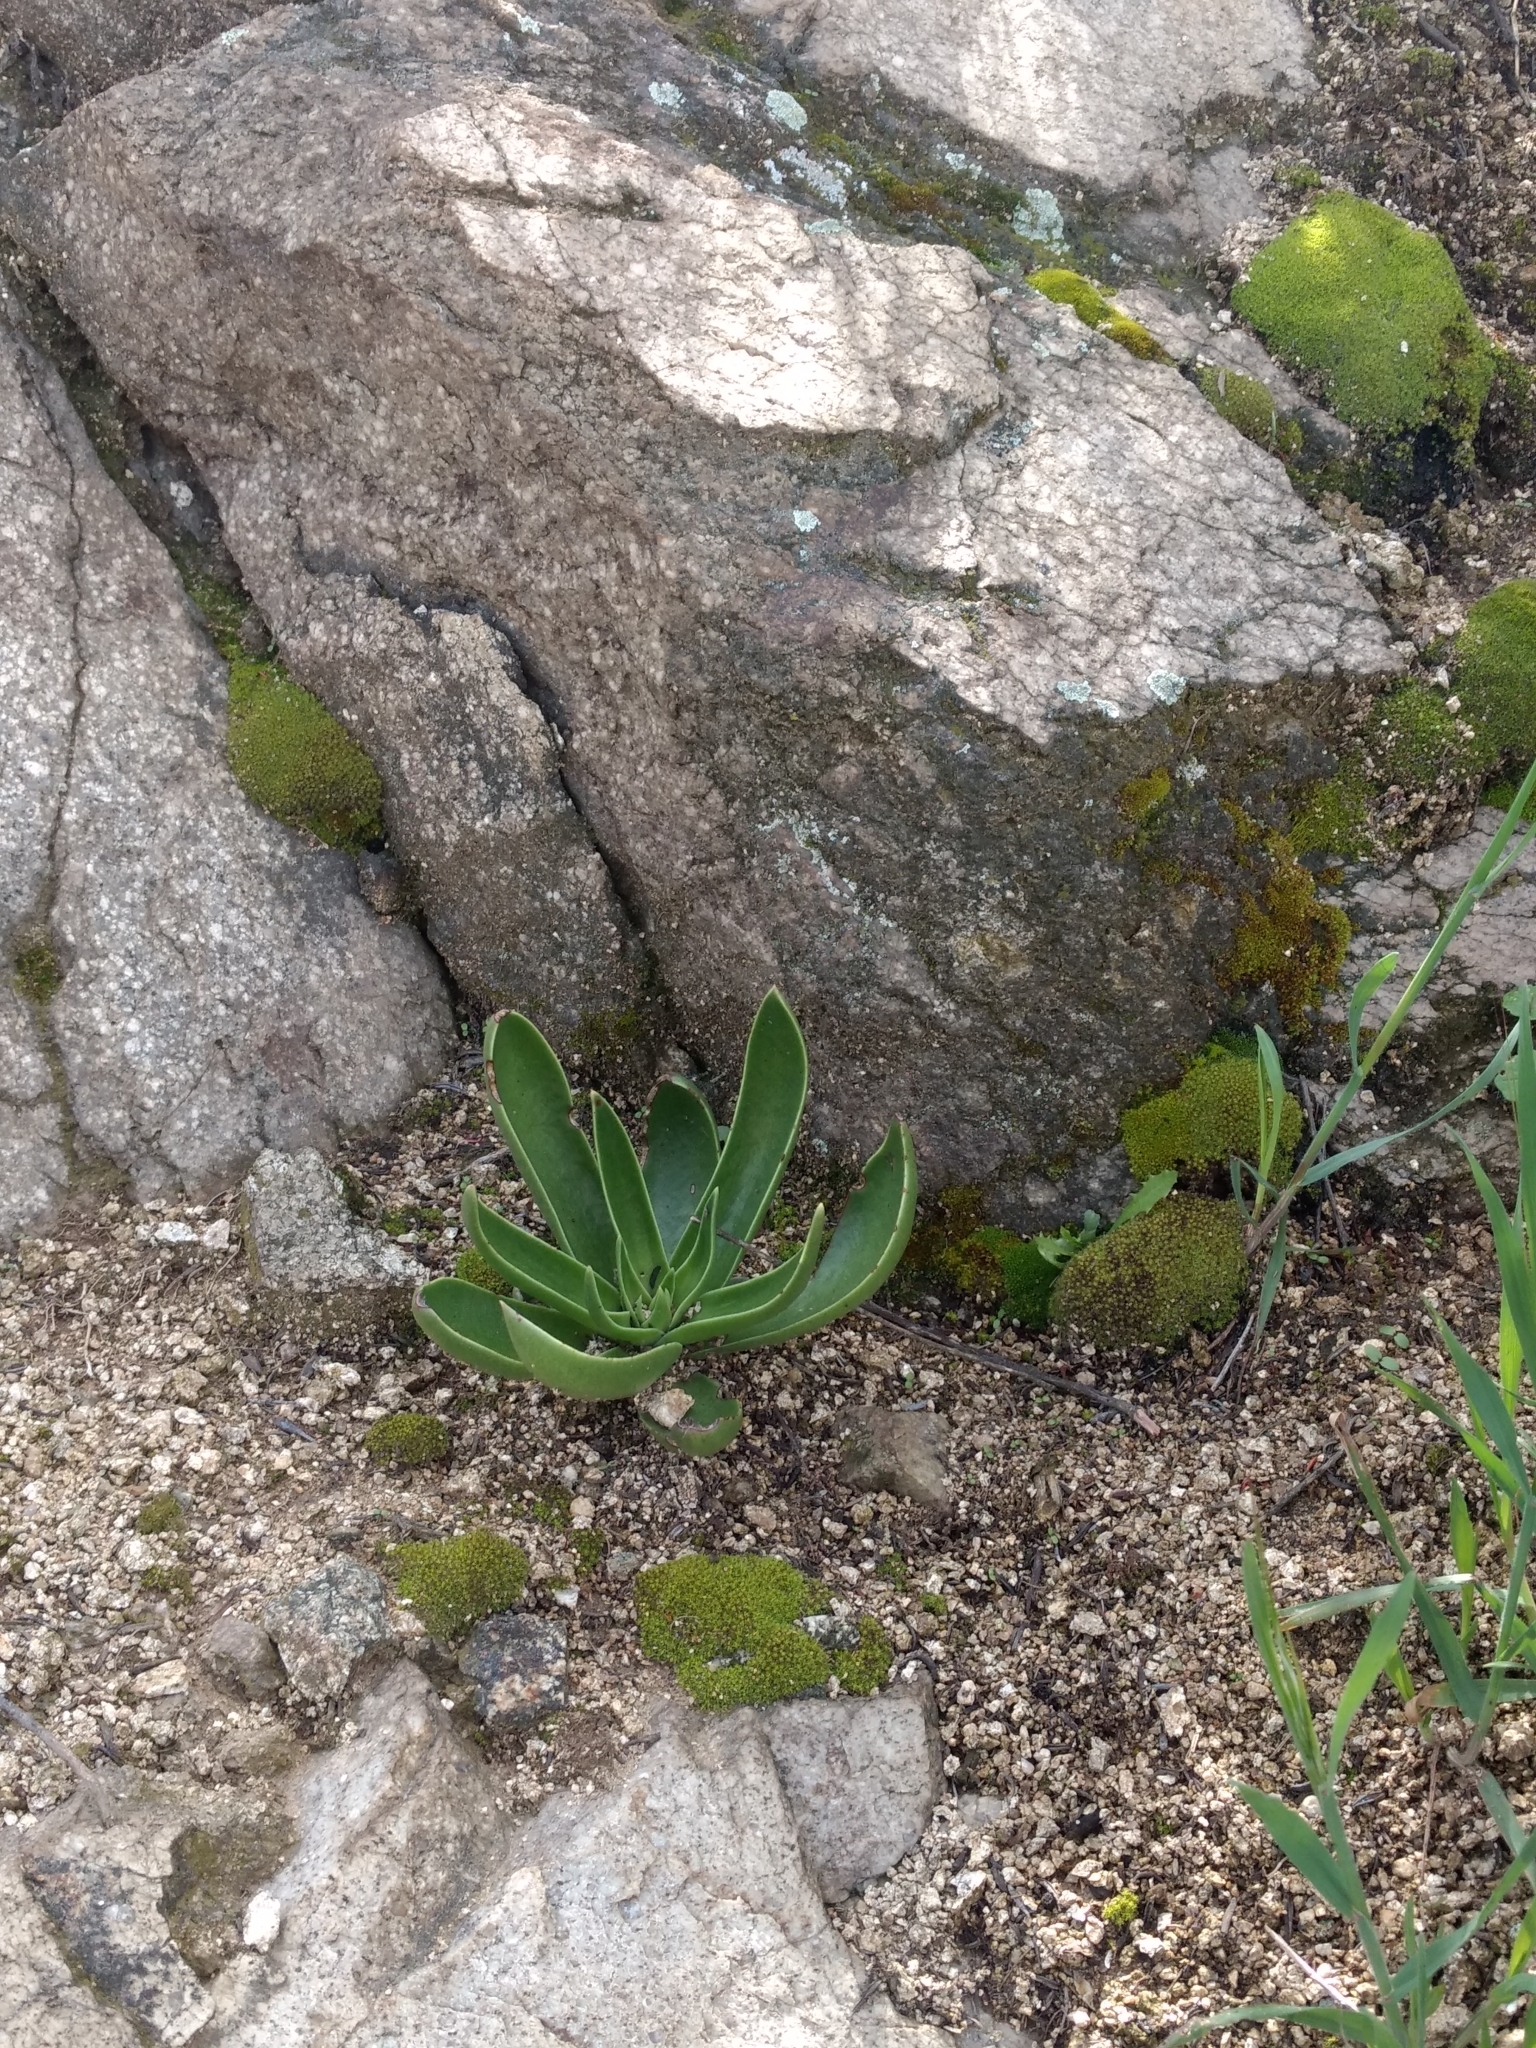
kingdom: Plantae
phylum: Tracheophyta
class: Magnoliopsida
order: Saxifragales
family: Crassulaceae
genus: Dudleya
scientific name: Dudleya lanceolata
